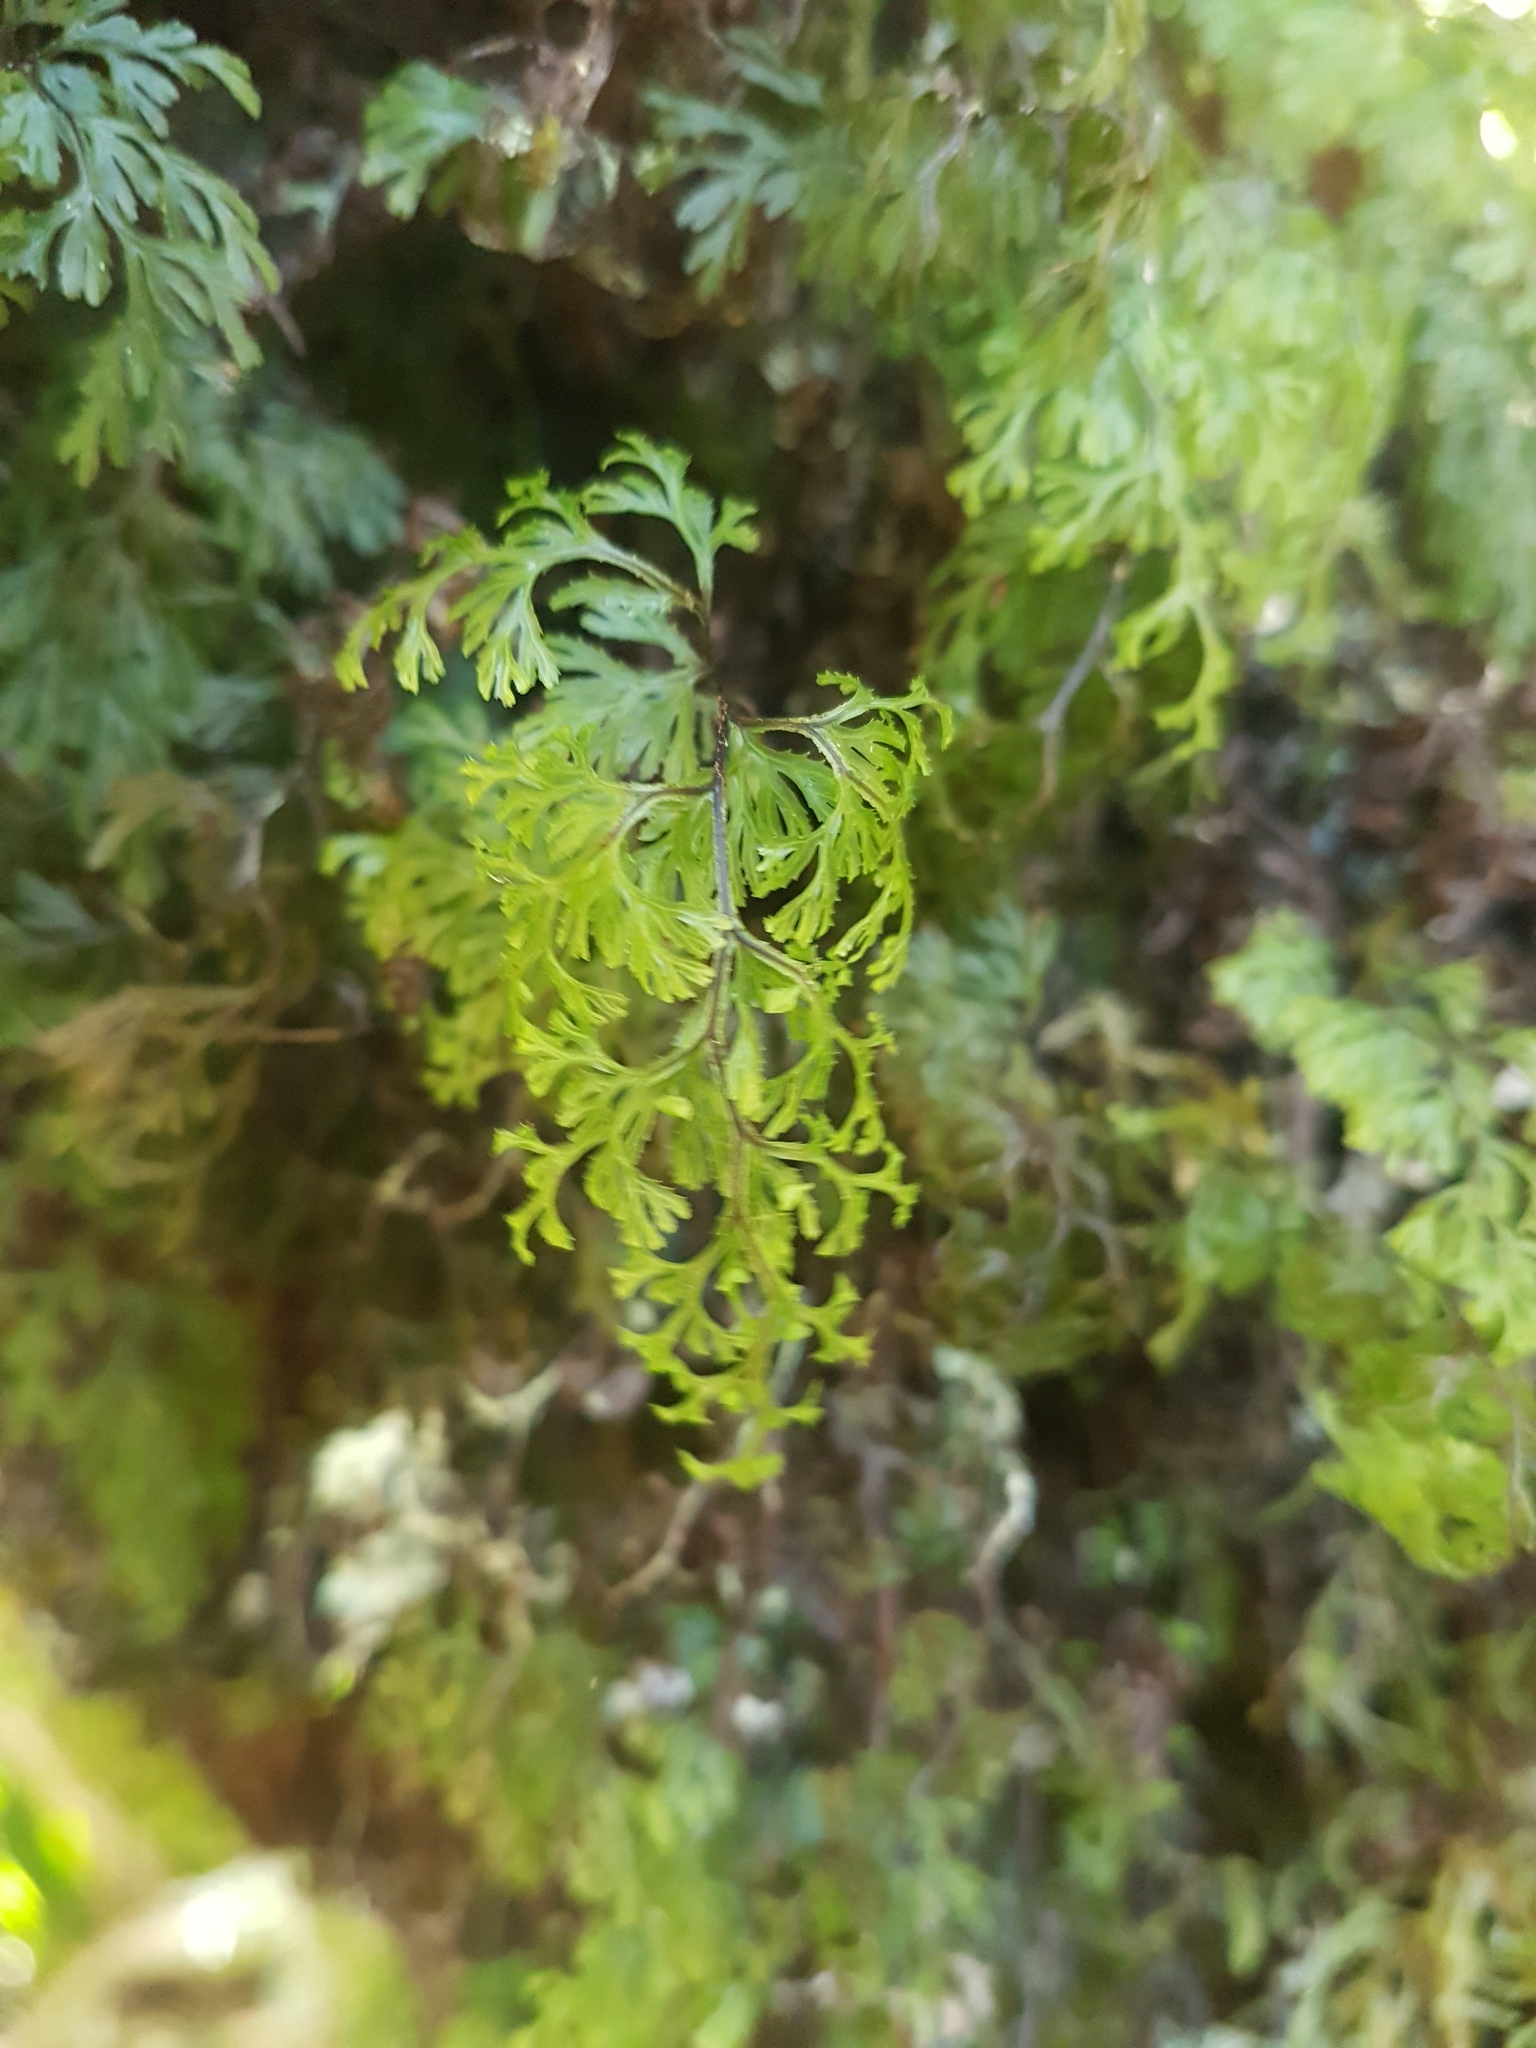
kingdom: Plantae
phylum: Tracheophyta
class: Polypodiopsida
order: Hymenophyllales
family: Hymenophyllaceae
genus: Hymenophyllum
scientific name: Hymenophyllum multifidum
